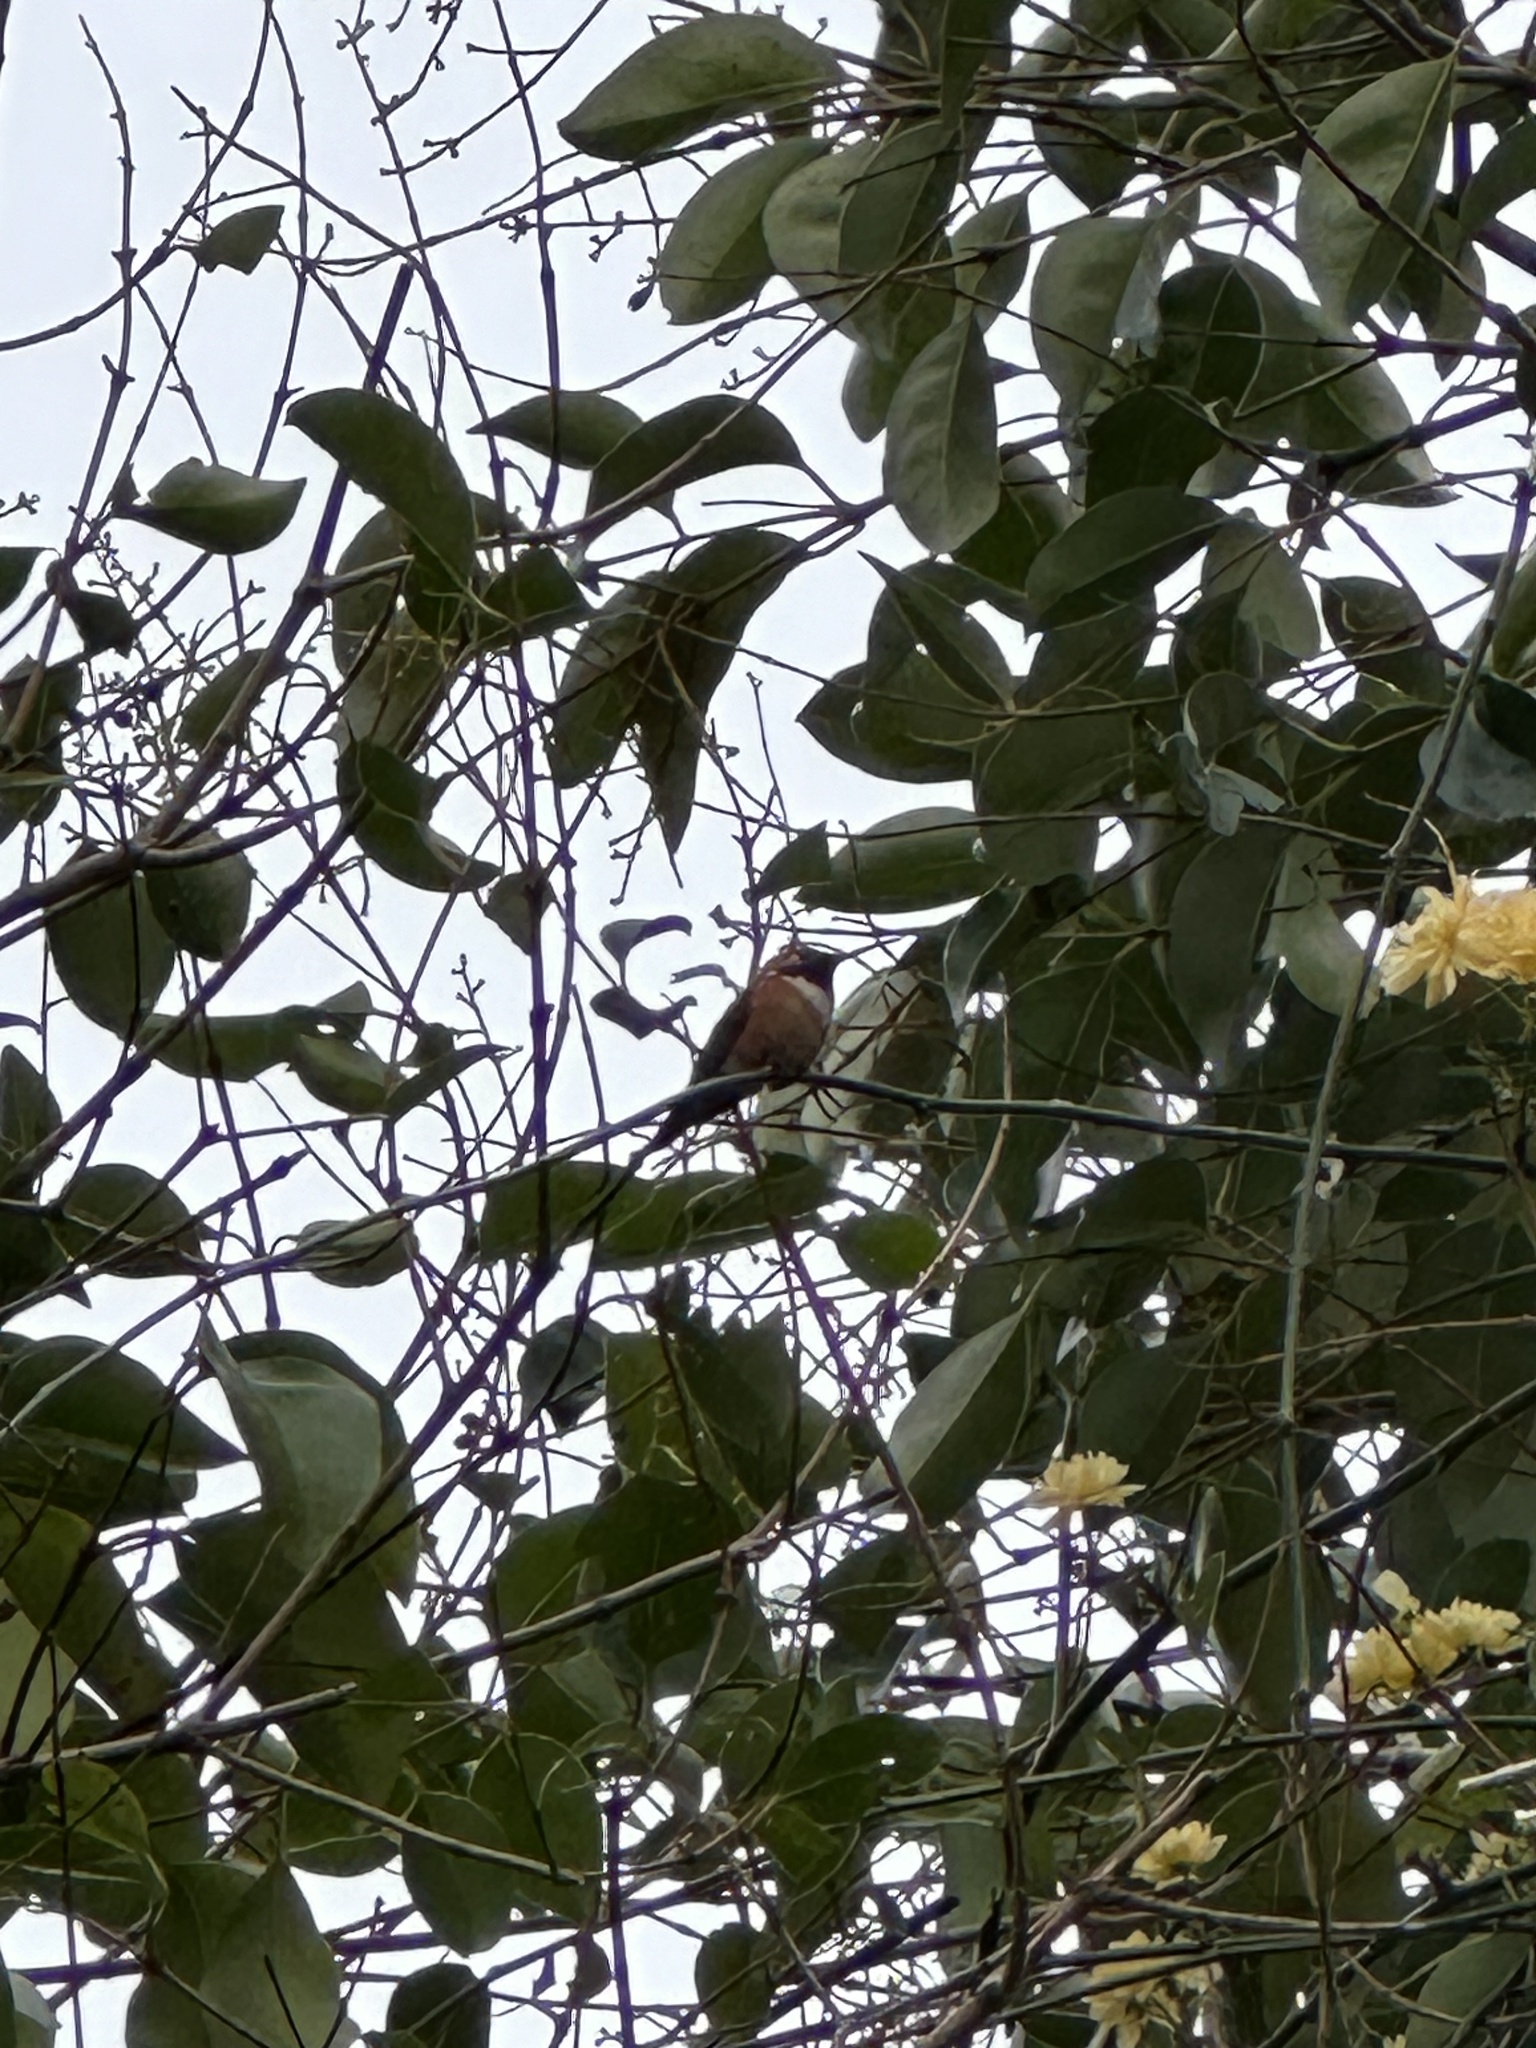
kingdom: Animalia
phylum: Chordata
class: Aves
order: Apodiformes
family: Trochilidae
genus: Selasphorus
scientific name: Selasphorus rufus
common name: Rufous hummingbird
